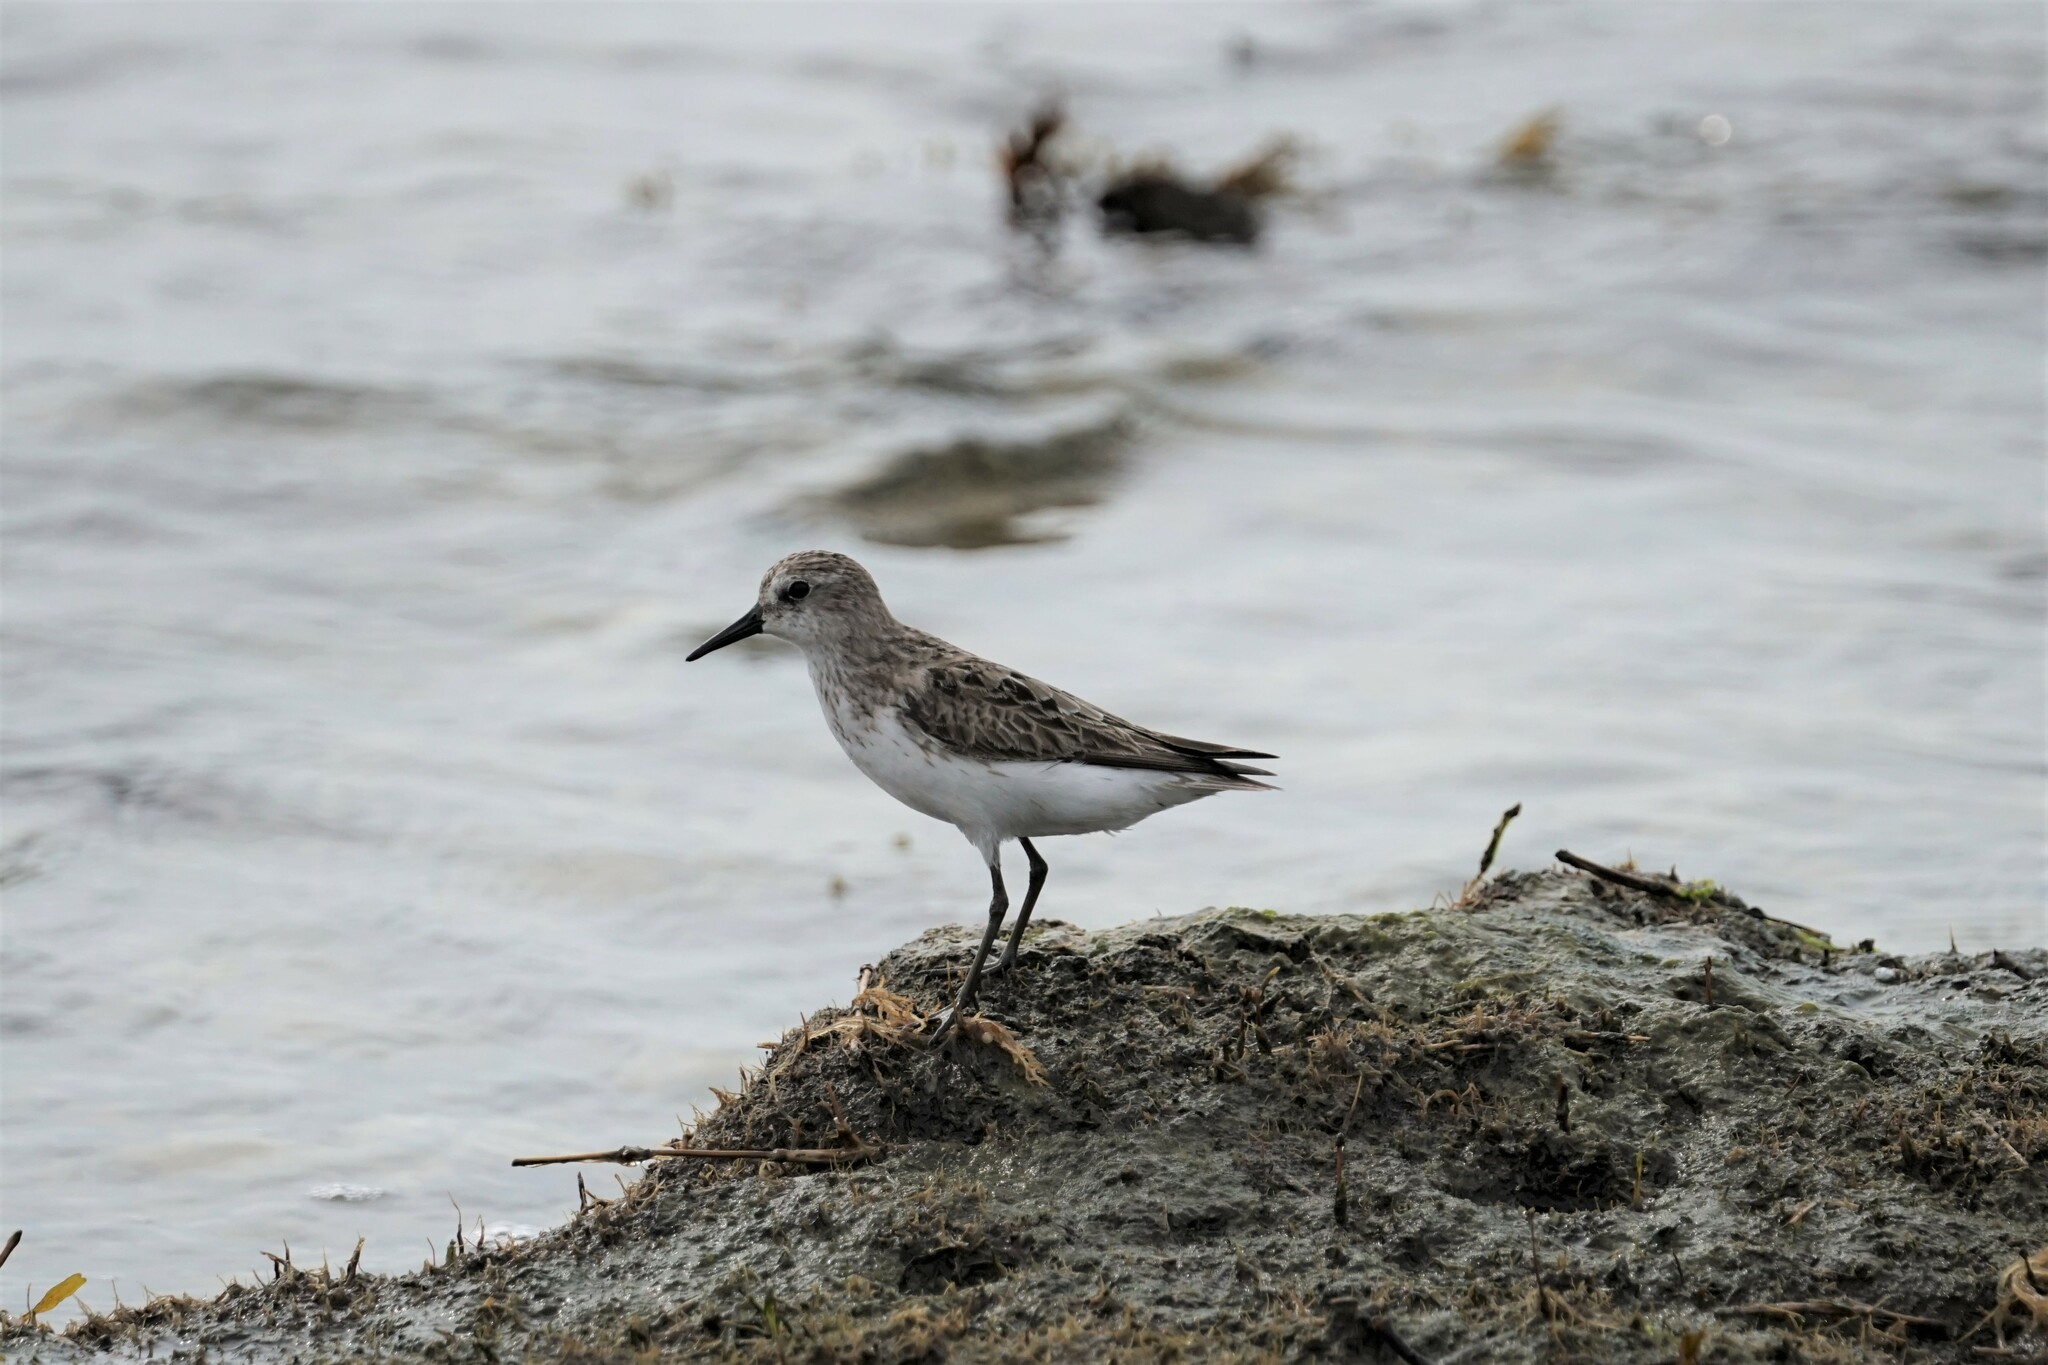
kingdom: Animalia
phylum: Chordata
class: Aves
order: Charadriiformes
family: Scolopacidae
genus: Calidris
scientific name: Calidris pusilla
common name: Semipalmated sandpiper
